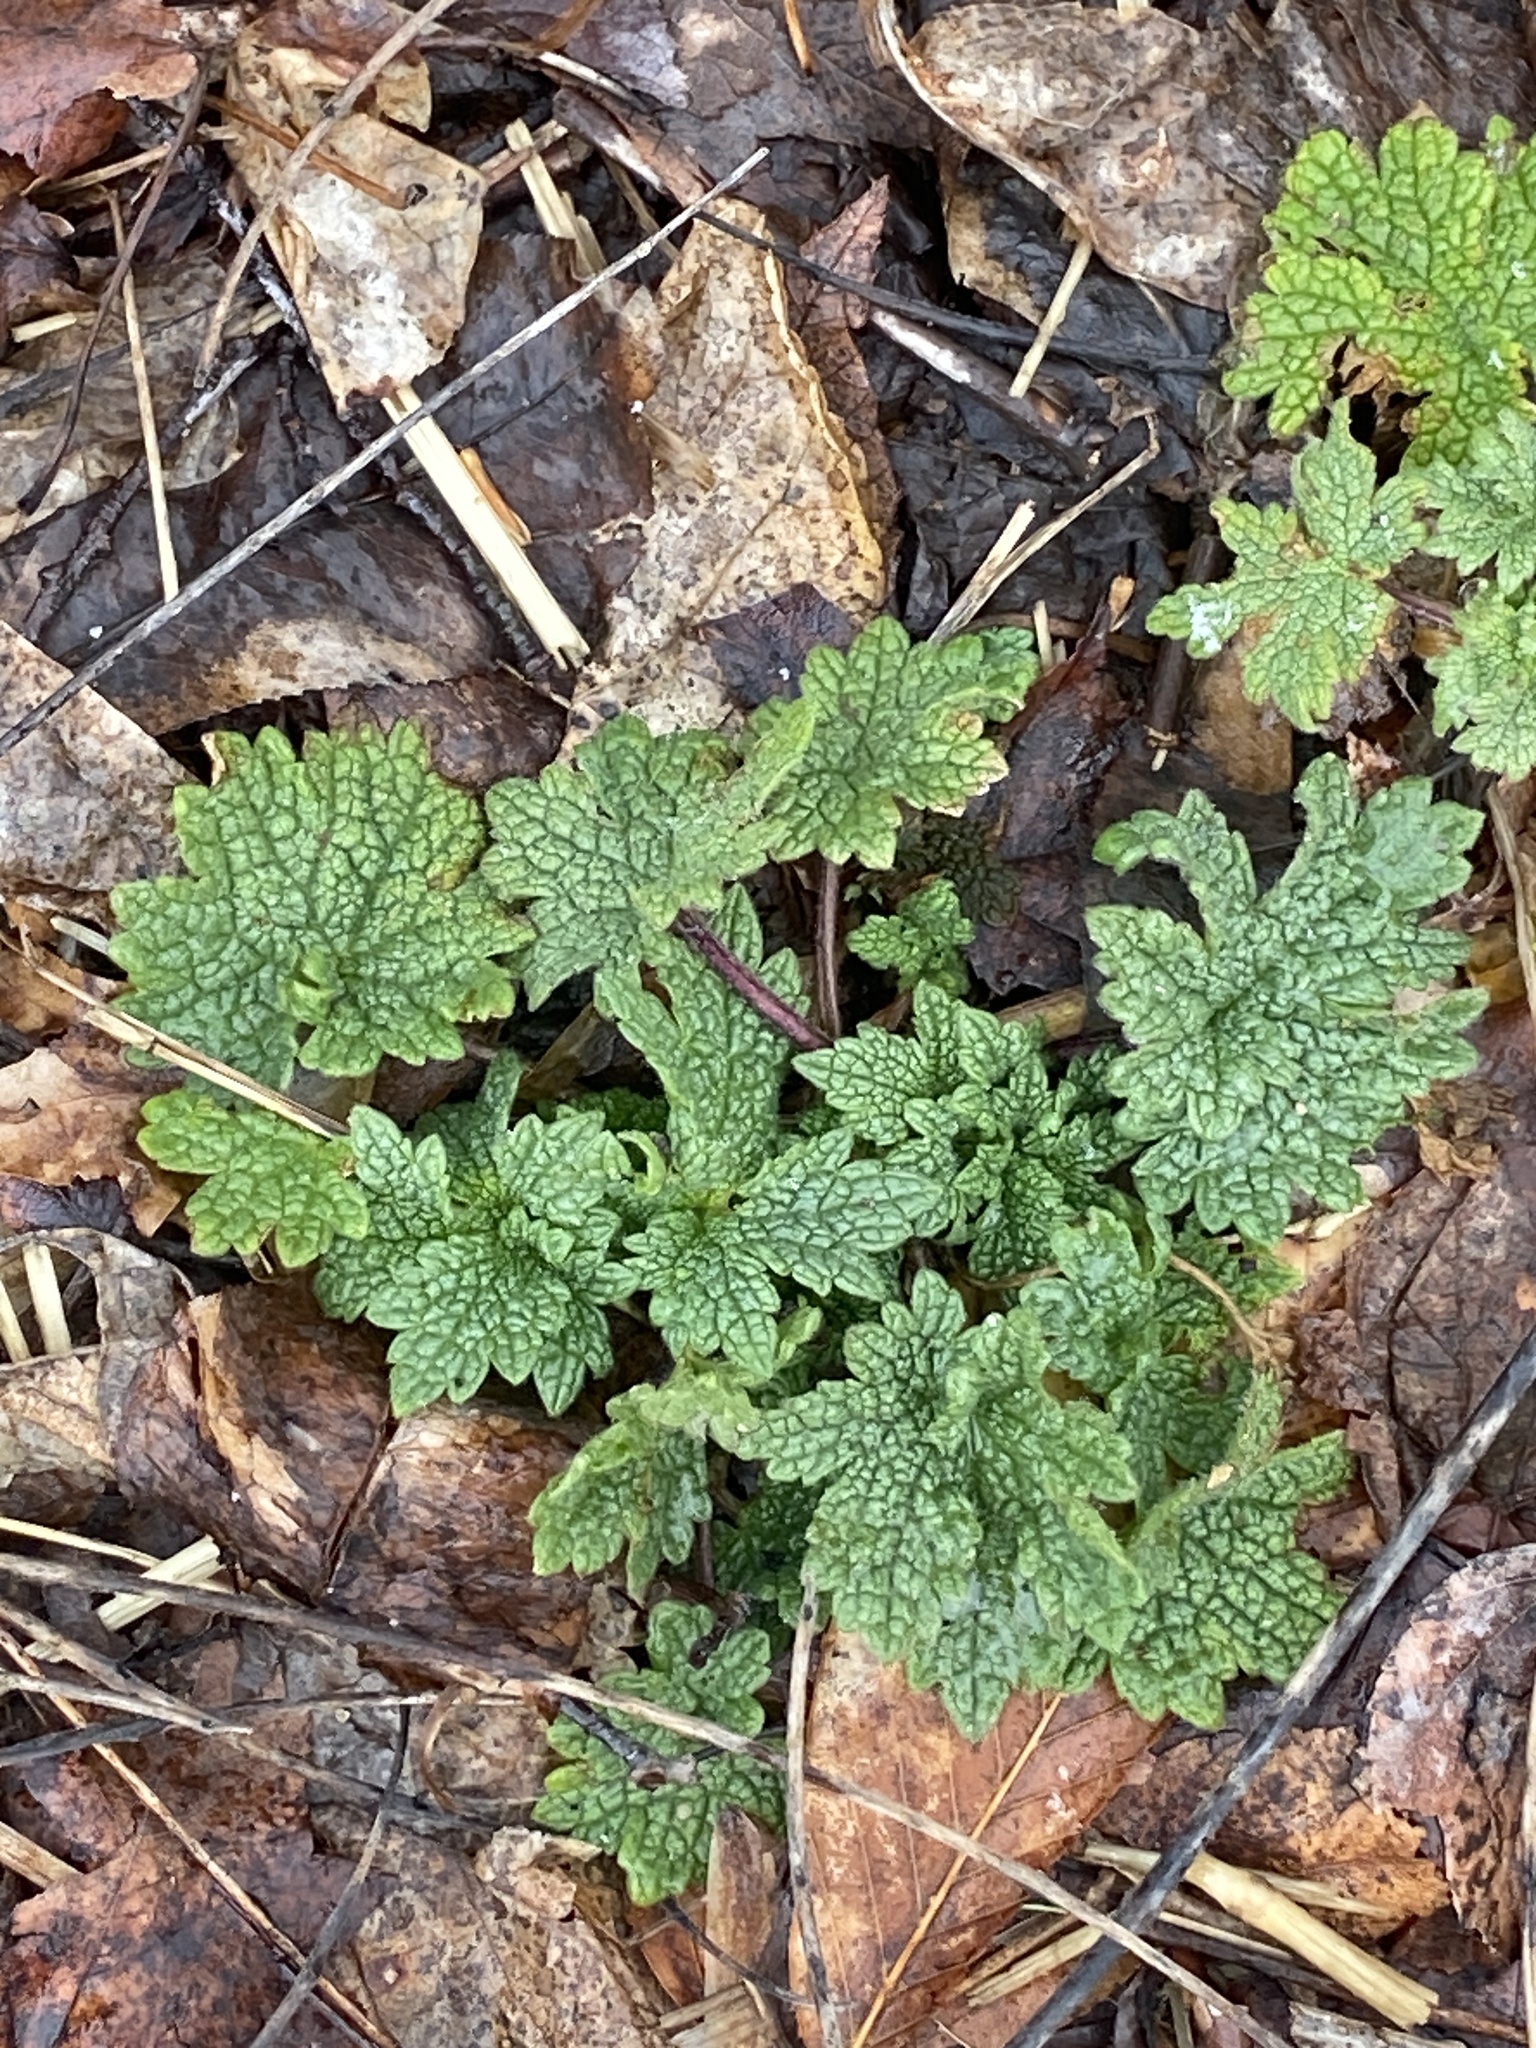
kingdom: Plantae
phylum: Tracheophyta
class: Magnoliopsida
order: Lamiales
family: Lamiaceae
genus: Leonurus
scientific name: Leonurus cardiaca
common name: Motherwort
